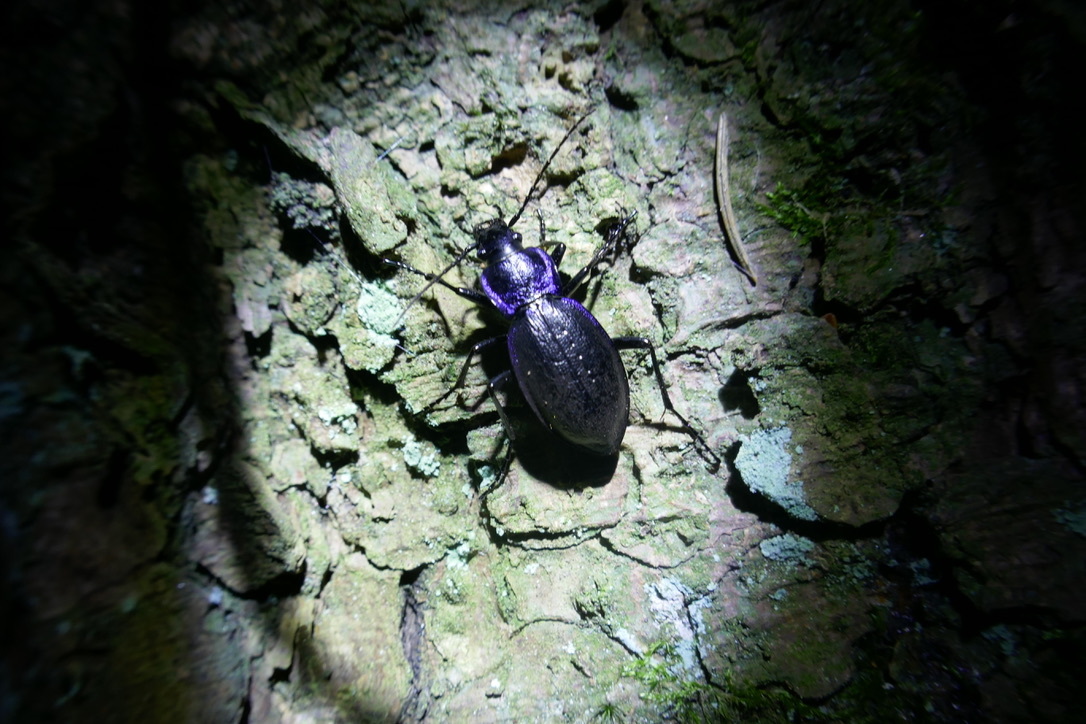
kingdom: Animalia
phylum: Arthropoda
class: Insecta
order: Coleoptera
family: Carabidae
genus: Carabus
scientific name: Carabus problematicus
